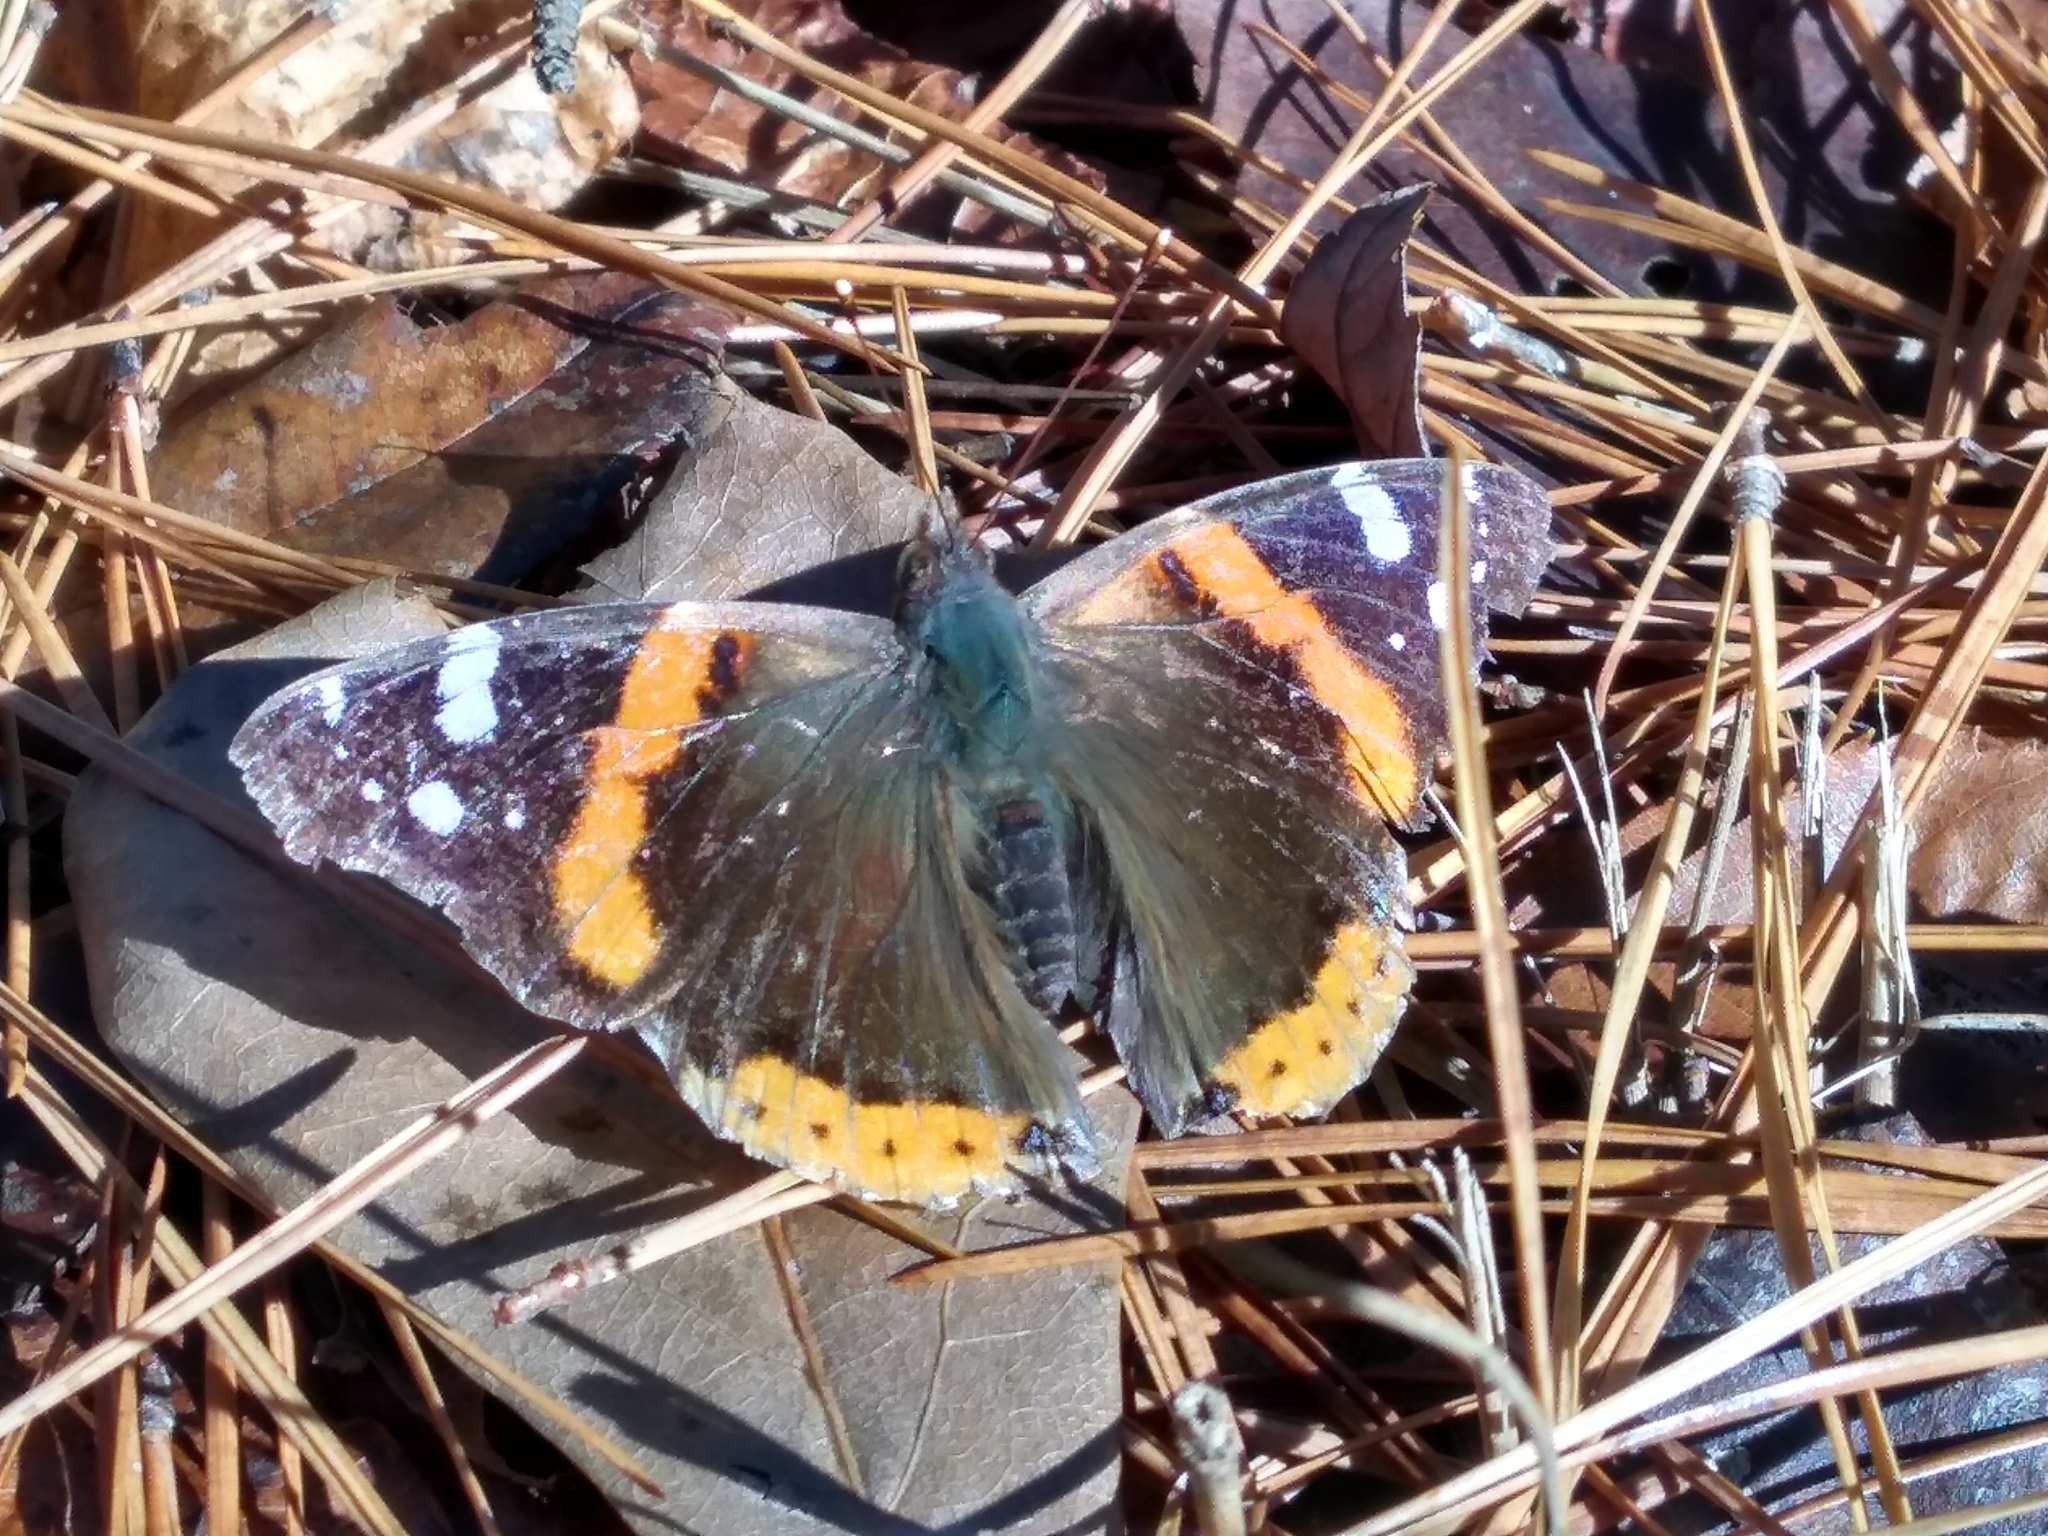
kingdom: Animalia
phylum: Arthropoda
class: Insecta
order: Lepidoptera
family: Nymphalidae
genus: Vanessa
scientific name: Vanessa atalanta
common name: Red admiral
